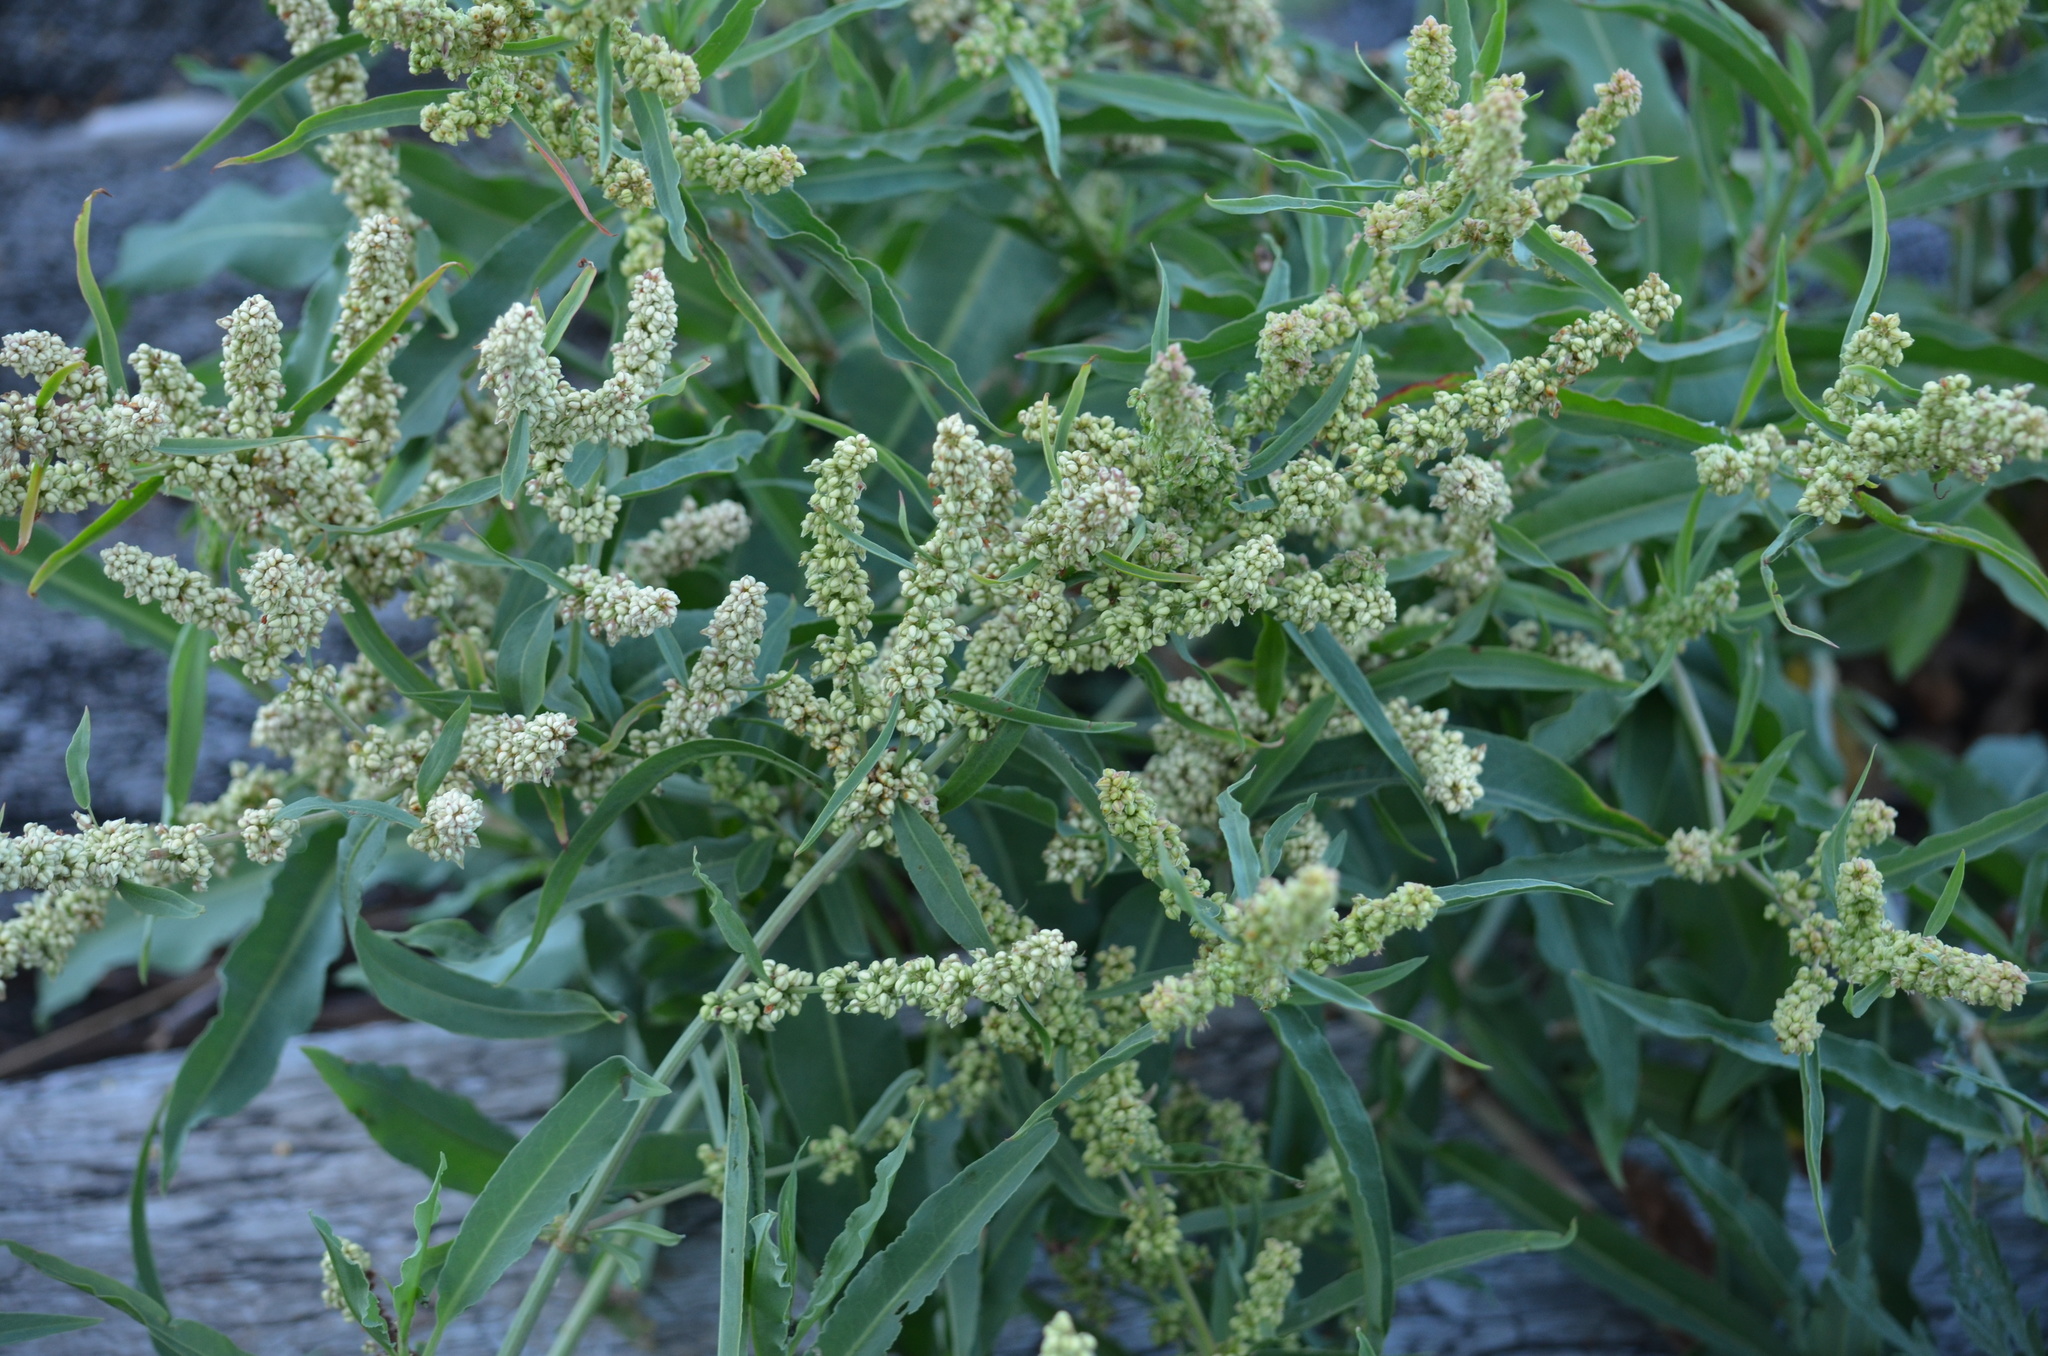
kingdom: Plantae
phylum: Tracheophyta
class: Magnoliopsida
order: Caryophyllales
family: Polygonaceae
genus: Rumex
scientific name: Rumex transitorius
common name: Pacific willow dock
